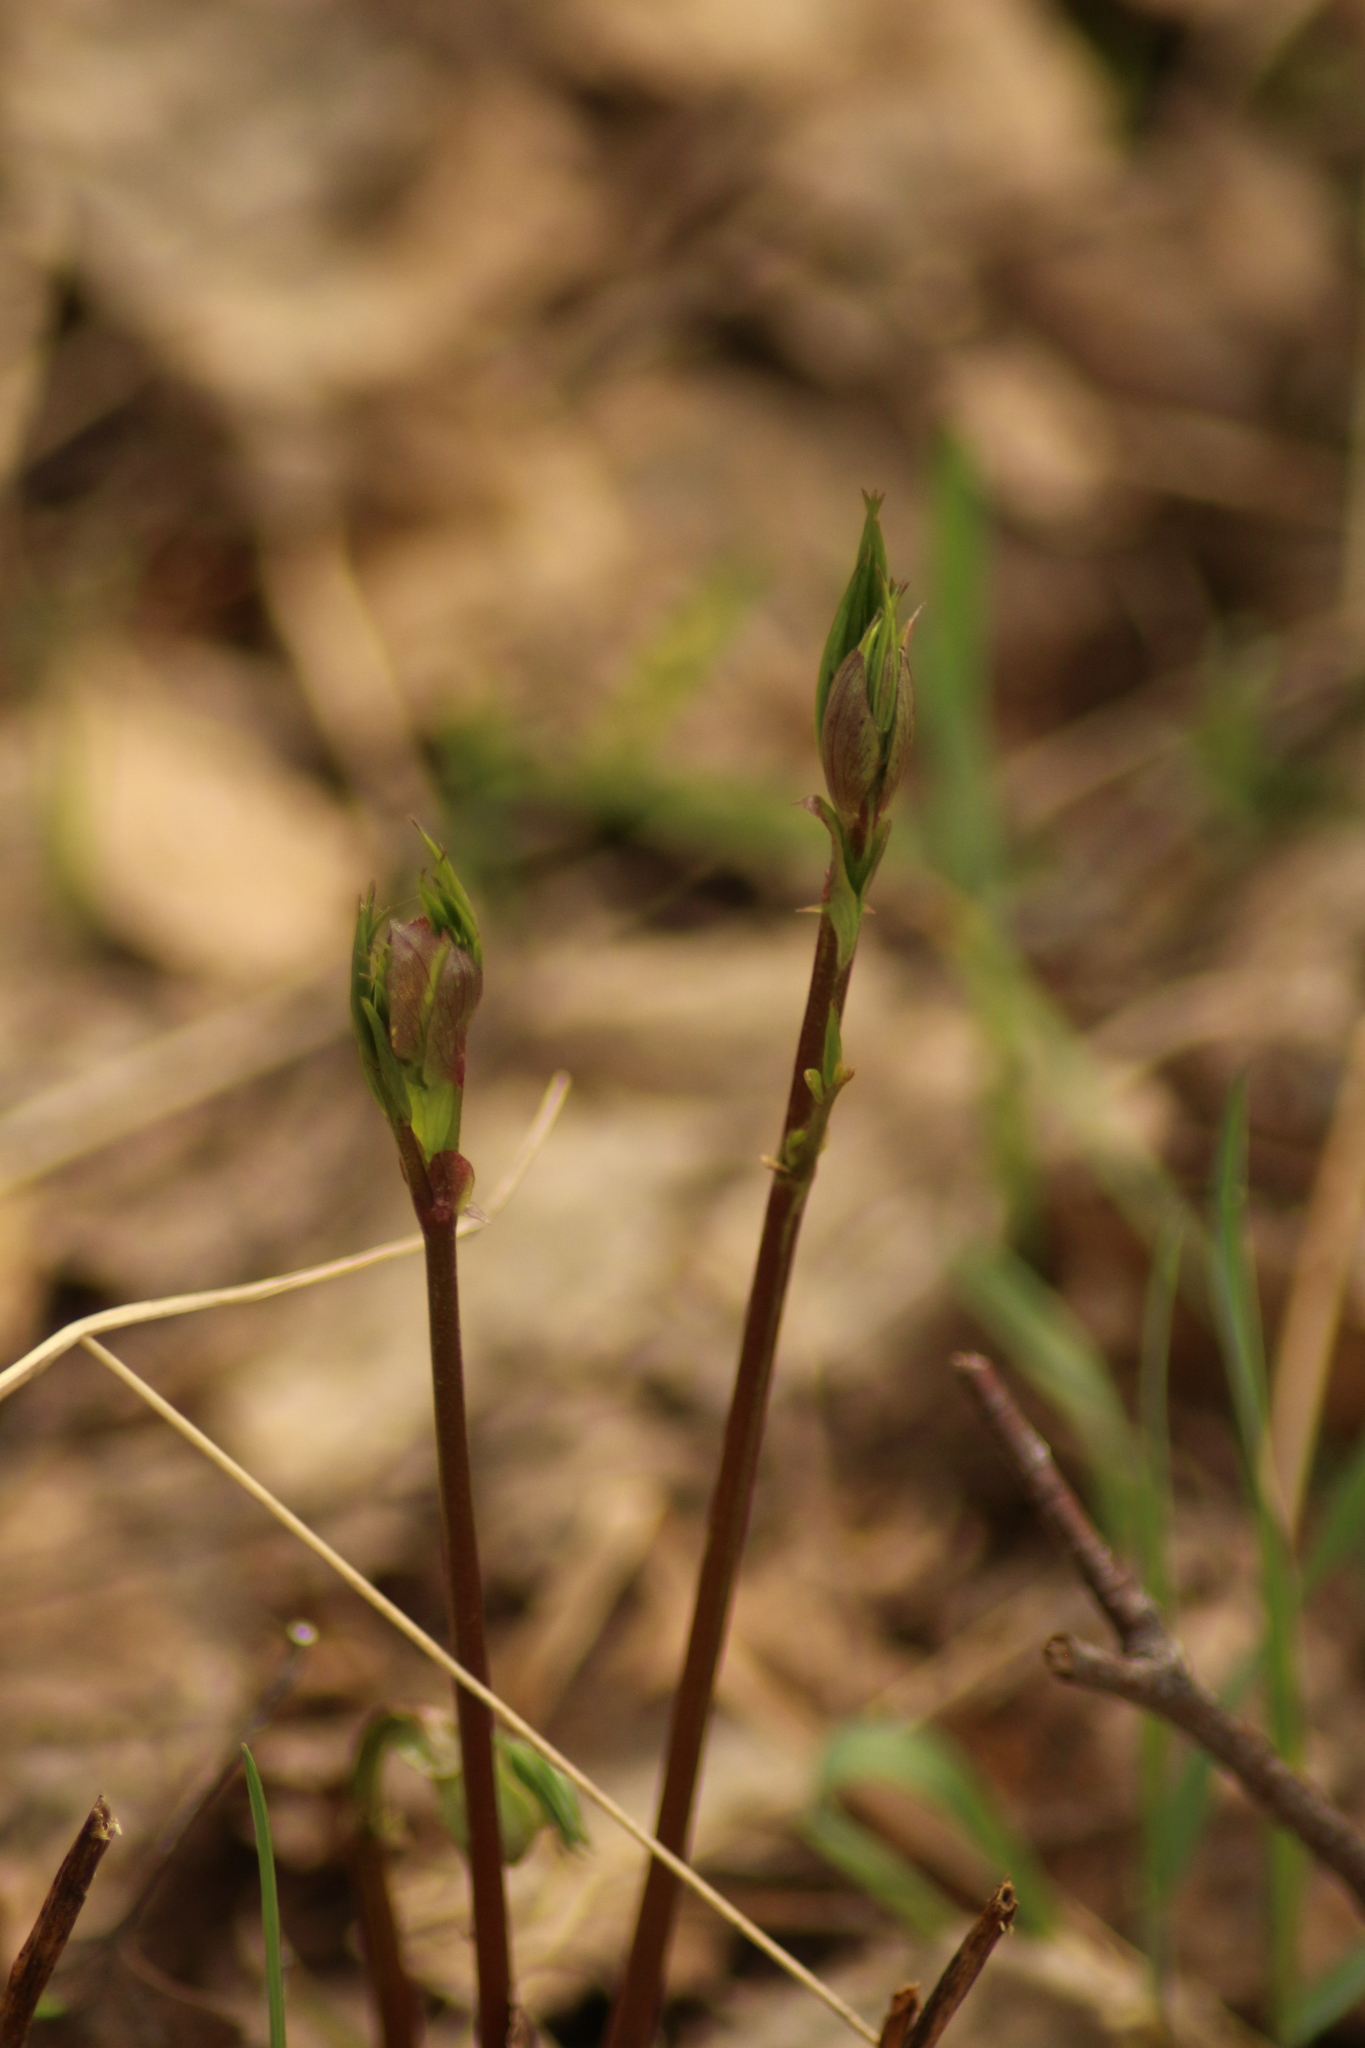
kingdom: Plantae
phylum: Tracheophyta
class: Magnoliopsida
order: Fabales
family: Fabaceae
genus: Lathyrus
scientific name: Lathyrus vernus
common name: Spring pea
